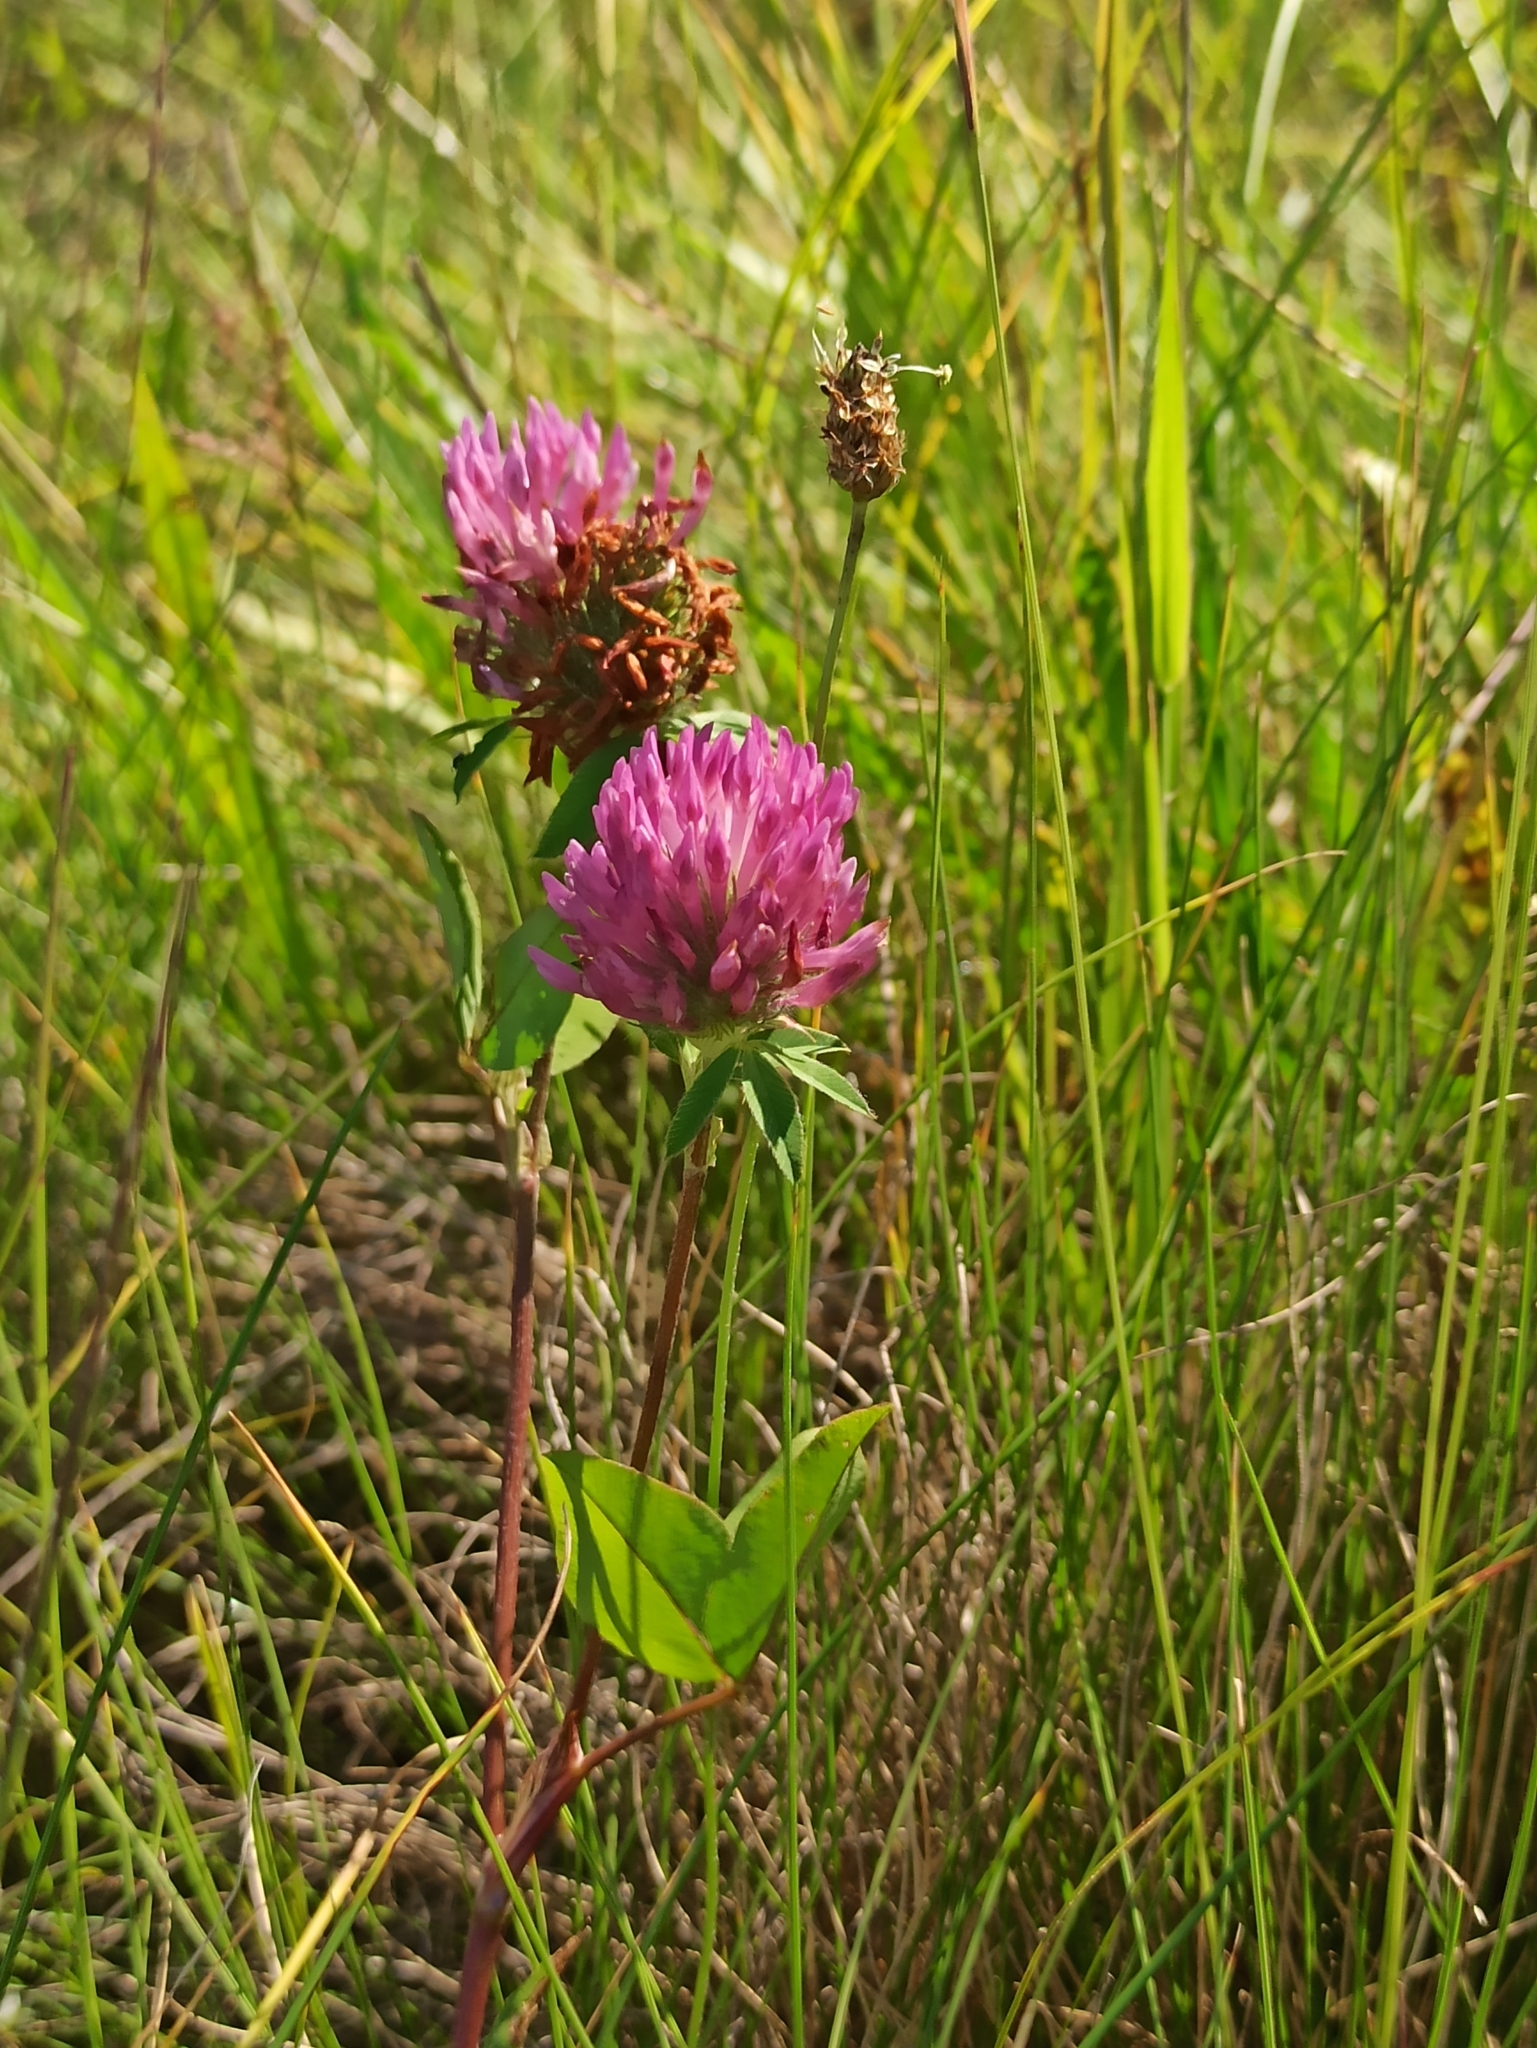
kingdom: Plantae
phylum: Tracheophyta
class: Magnoliopsida
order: Fabales
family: Fabaceae
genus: Trifolium
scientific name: Trifolium pratense
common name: Red clover
